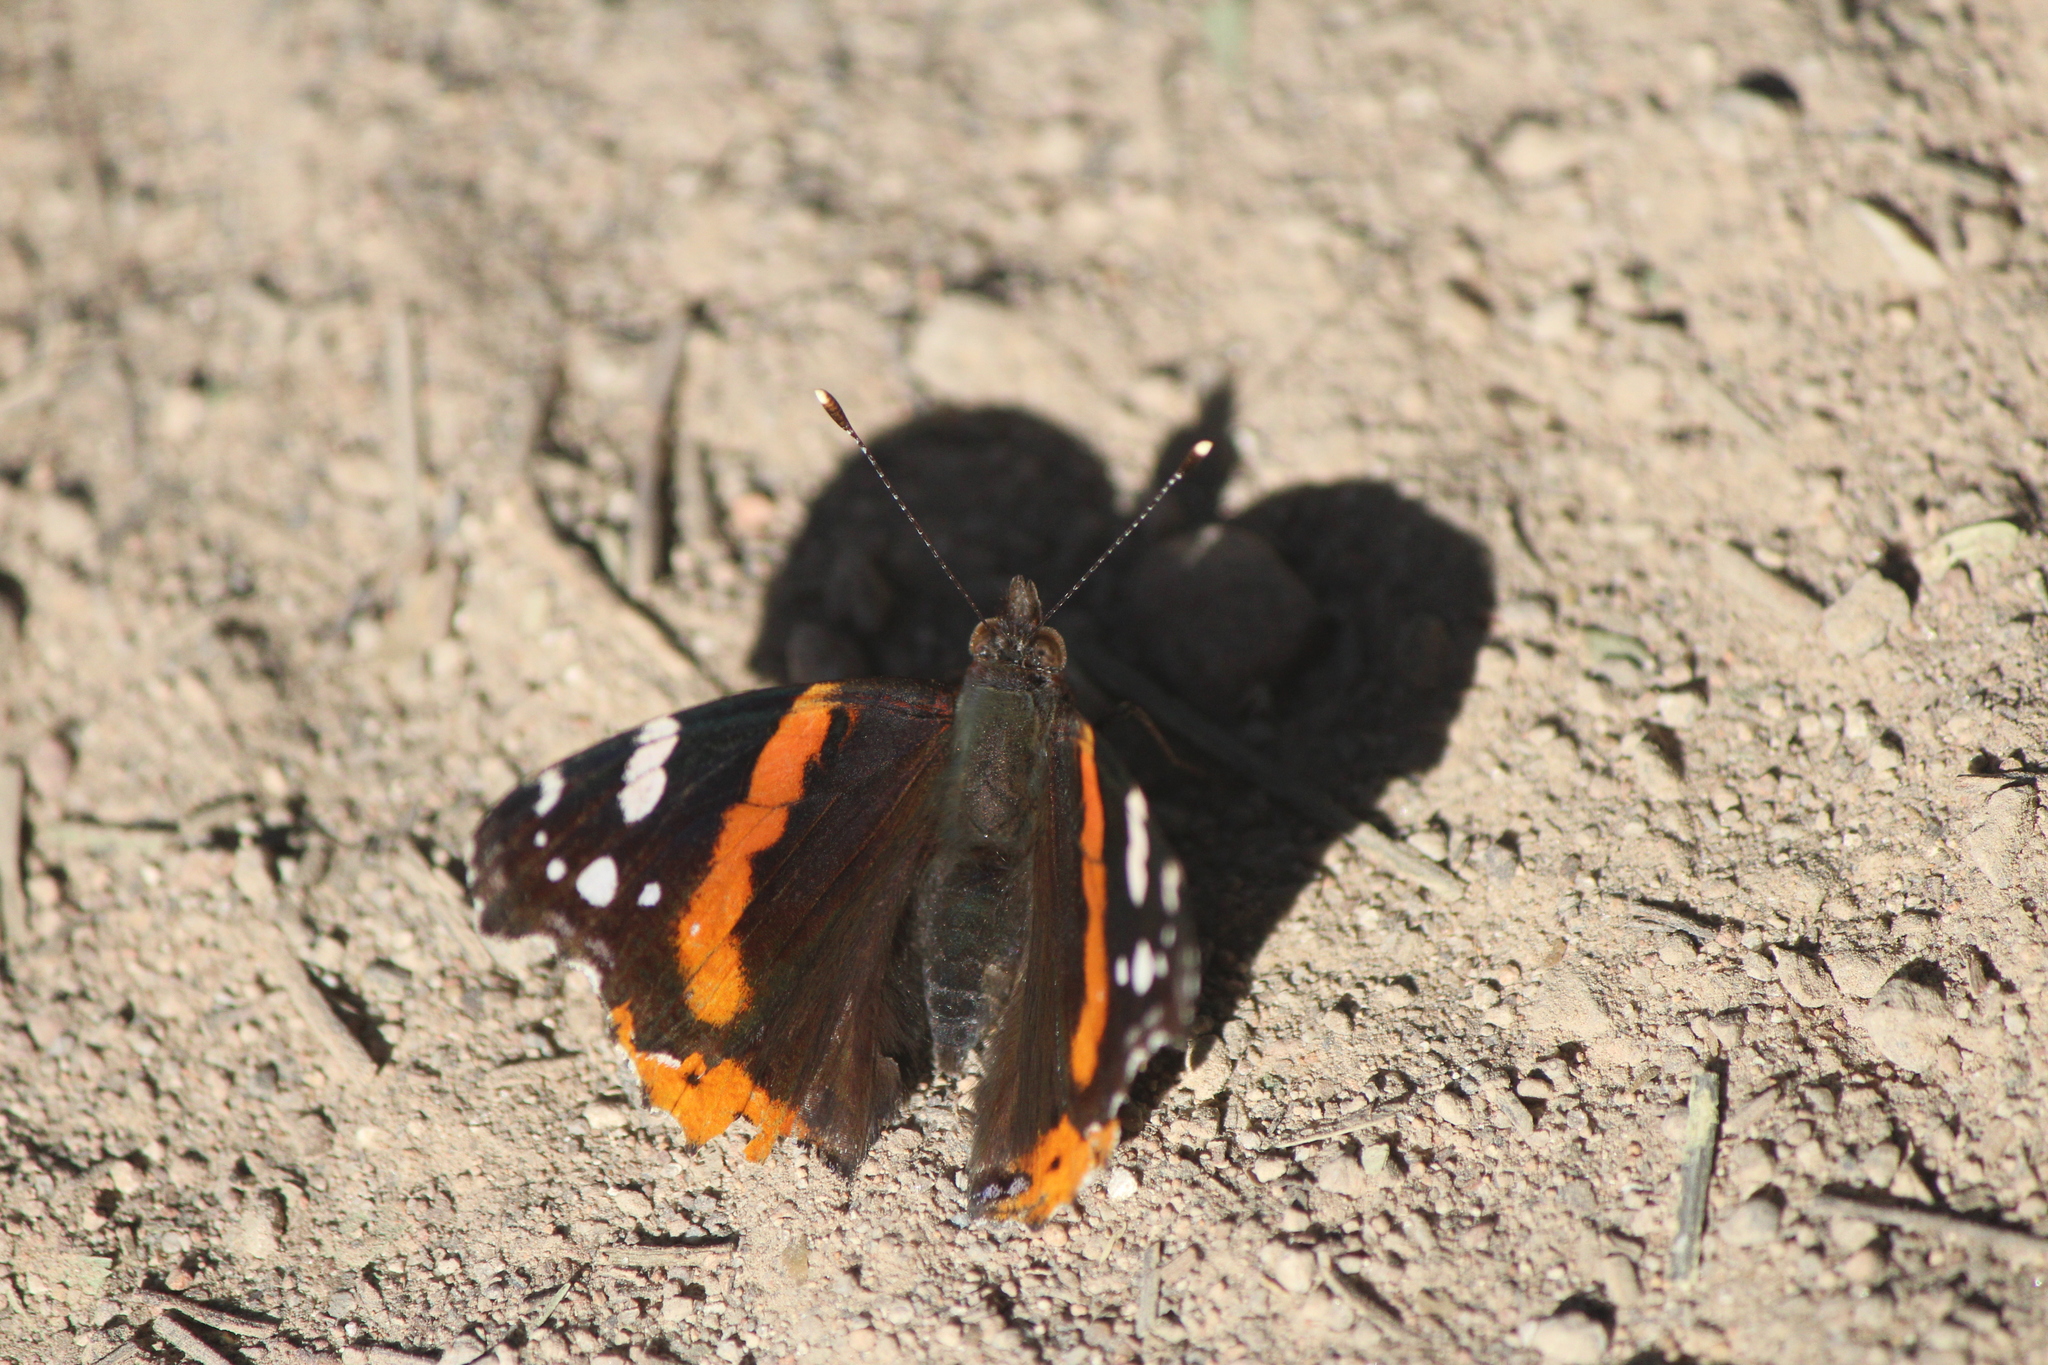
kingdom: Animalia
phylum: Arthropoda
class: Insecta
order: Lepidoptera
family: Nymphalidae
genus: Vanessa
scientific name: Vanessa atalanta
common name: Red admiral
